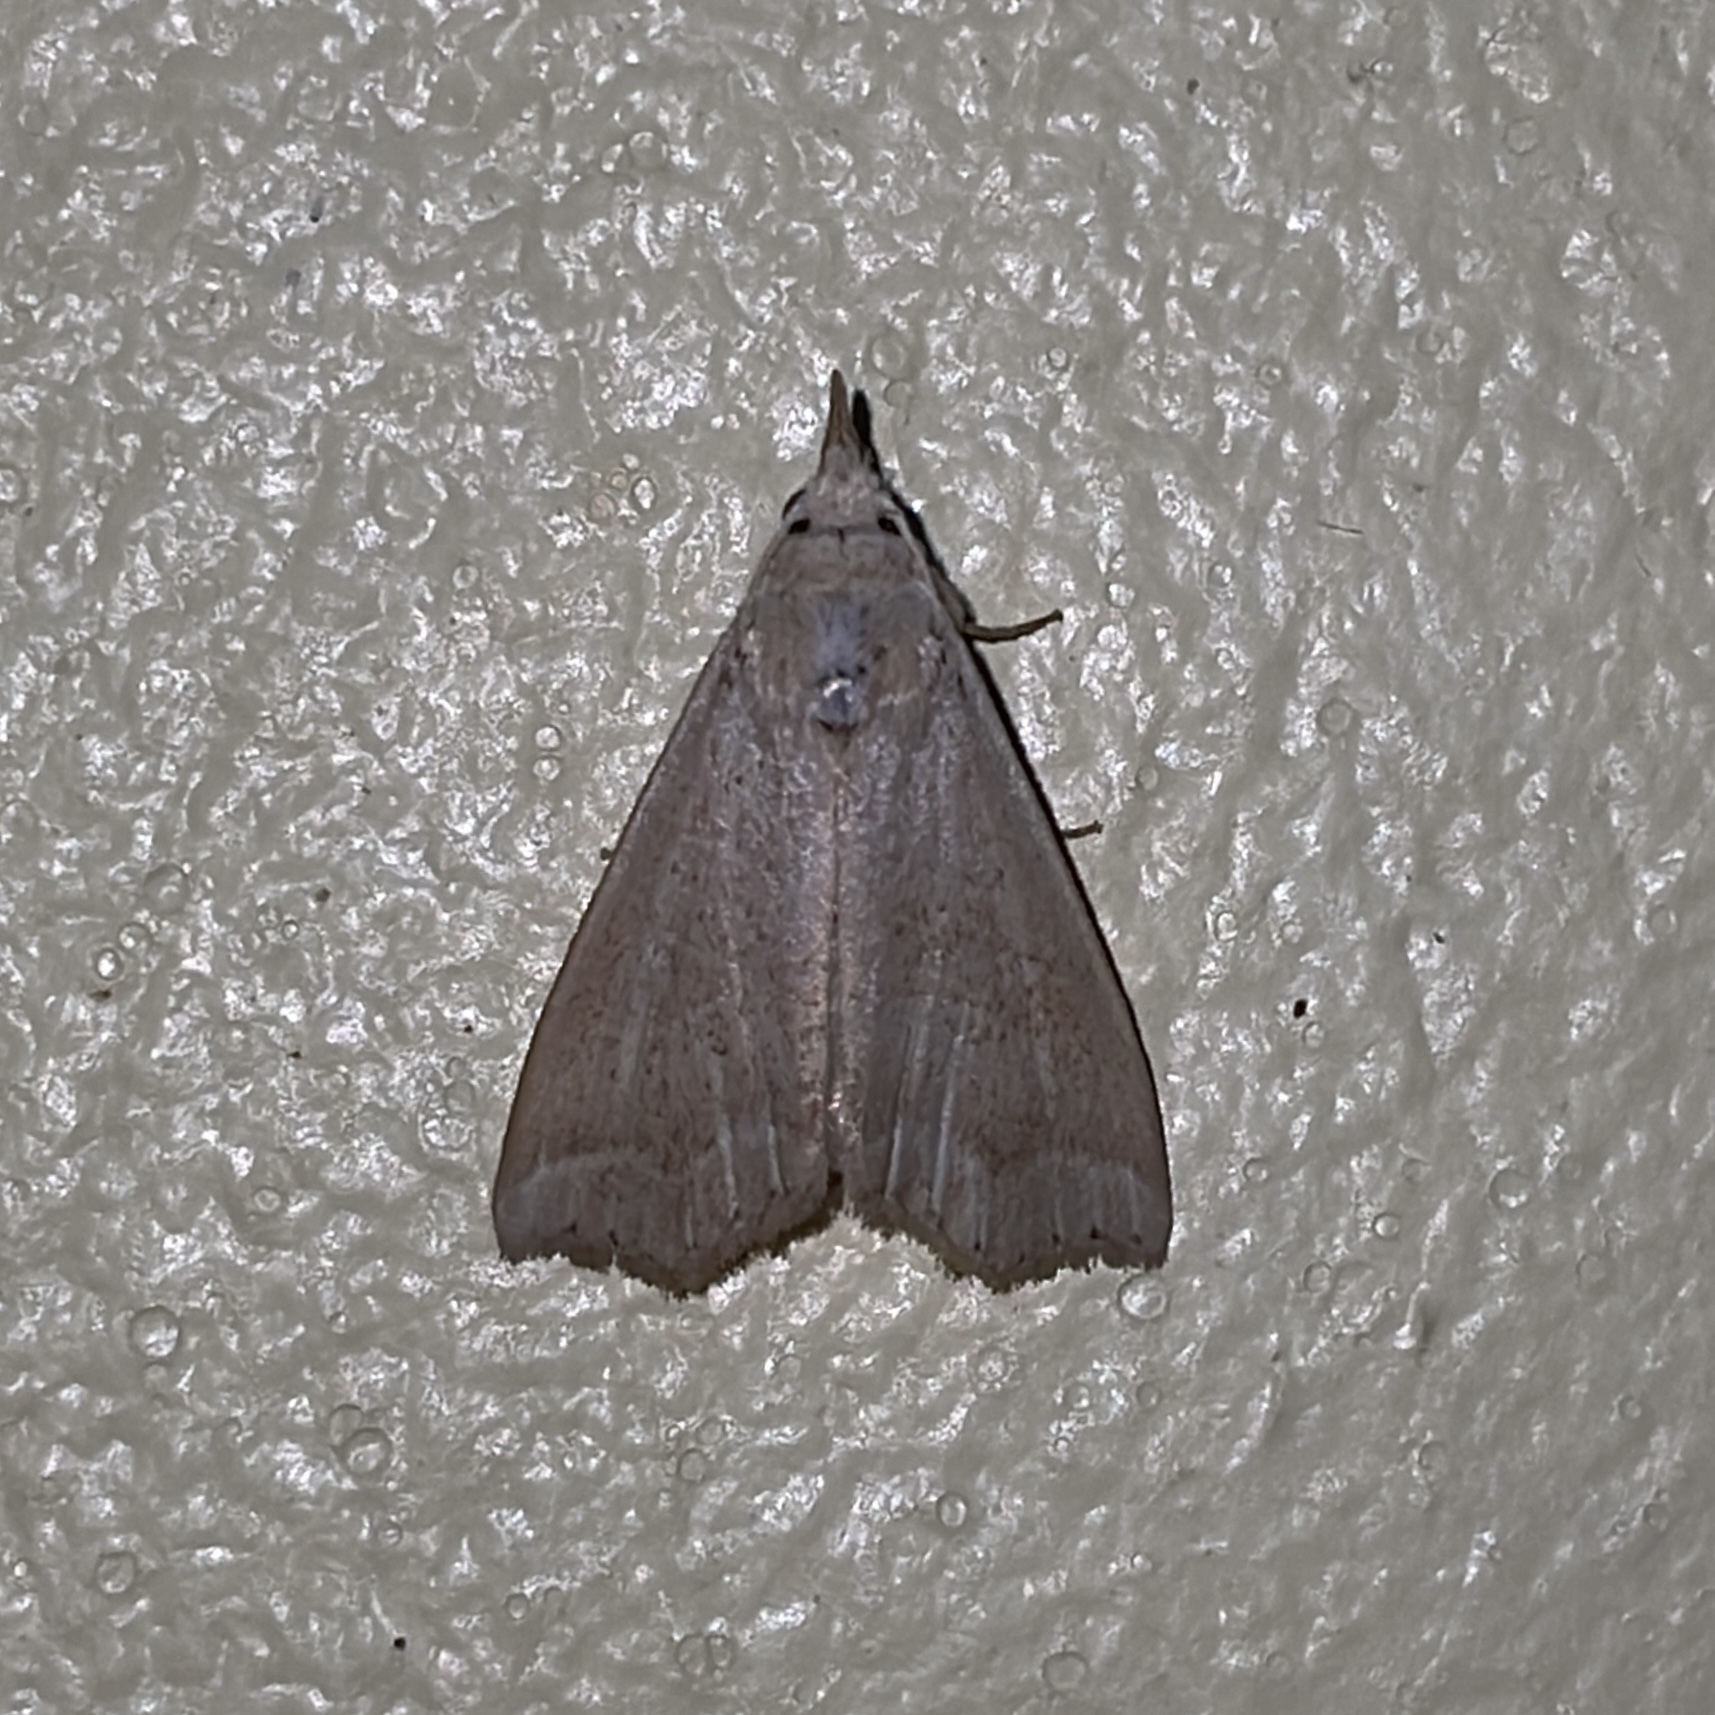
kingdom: Animalia
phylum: Arthropoda
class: Insecta
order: Lepidoptera
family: Erebidae
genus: Hyamia
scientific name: Hyamia unicolorata
